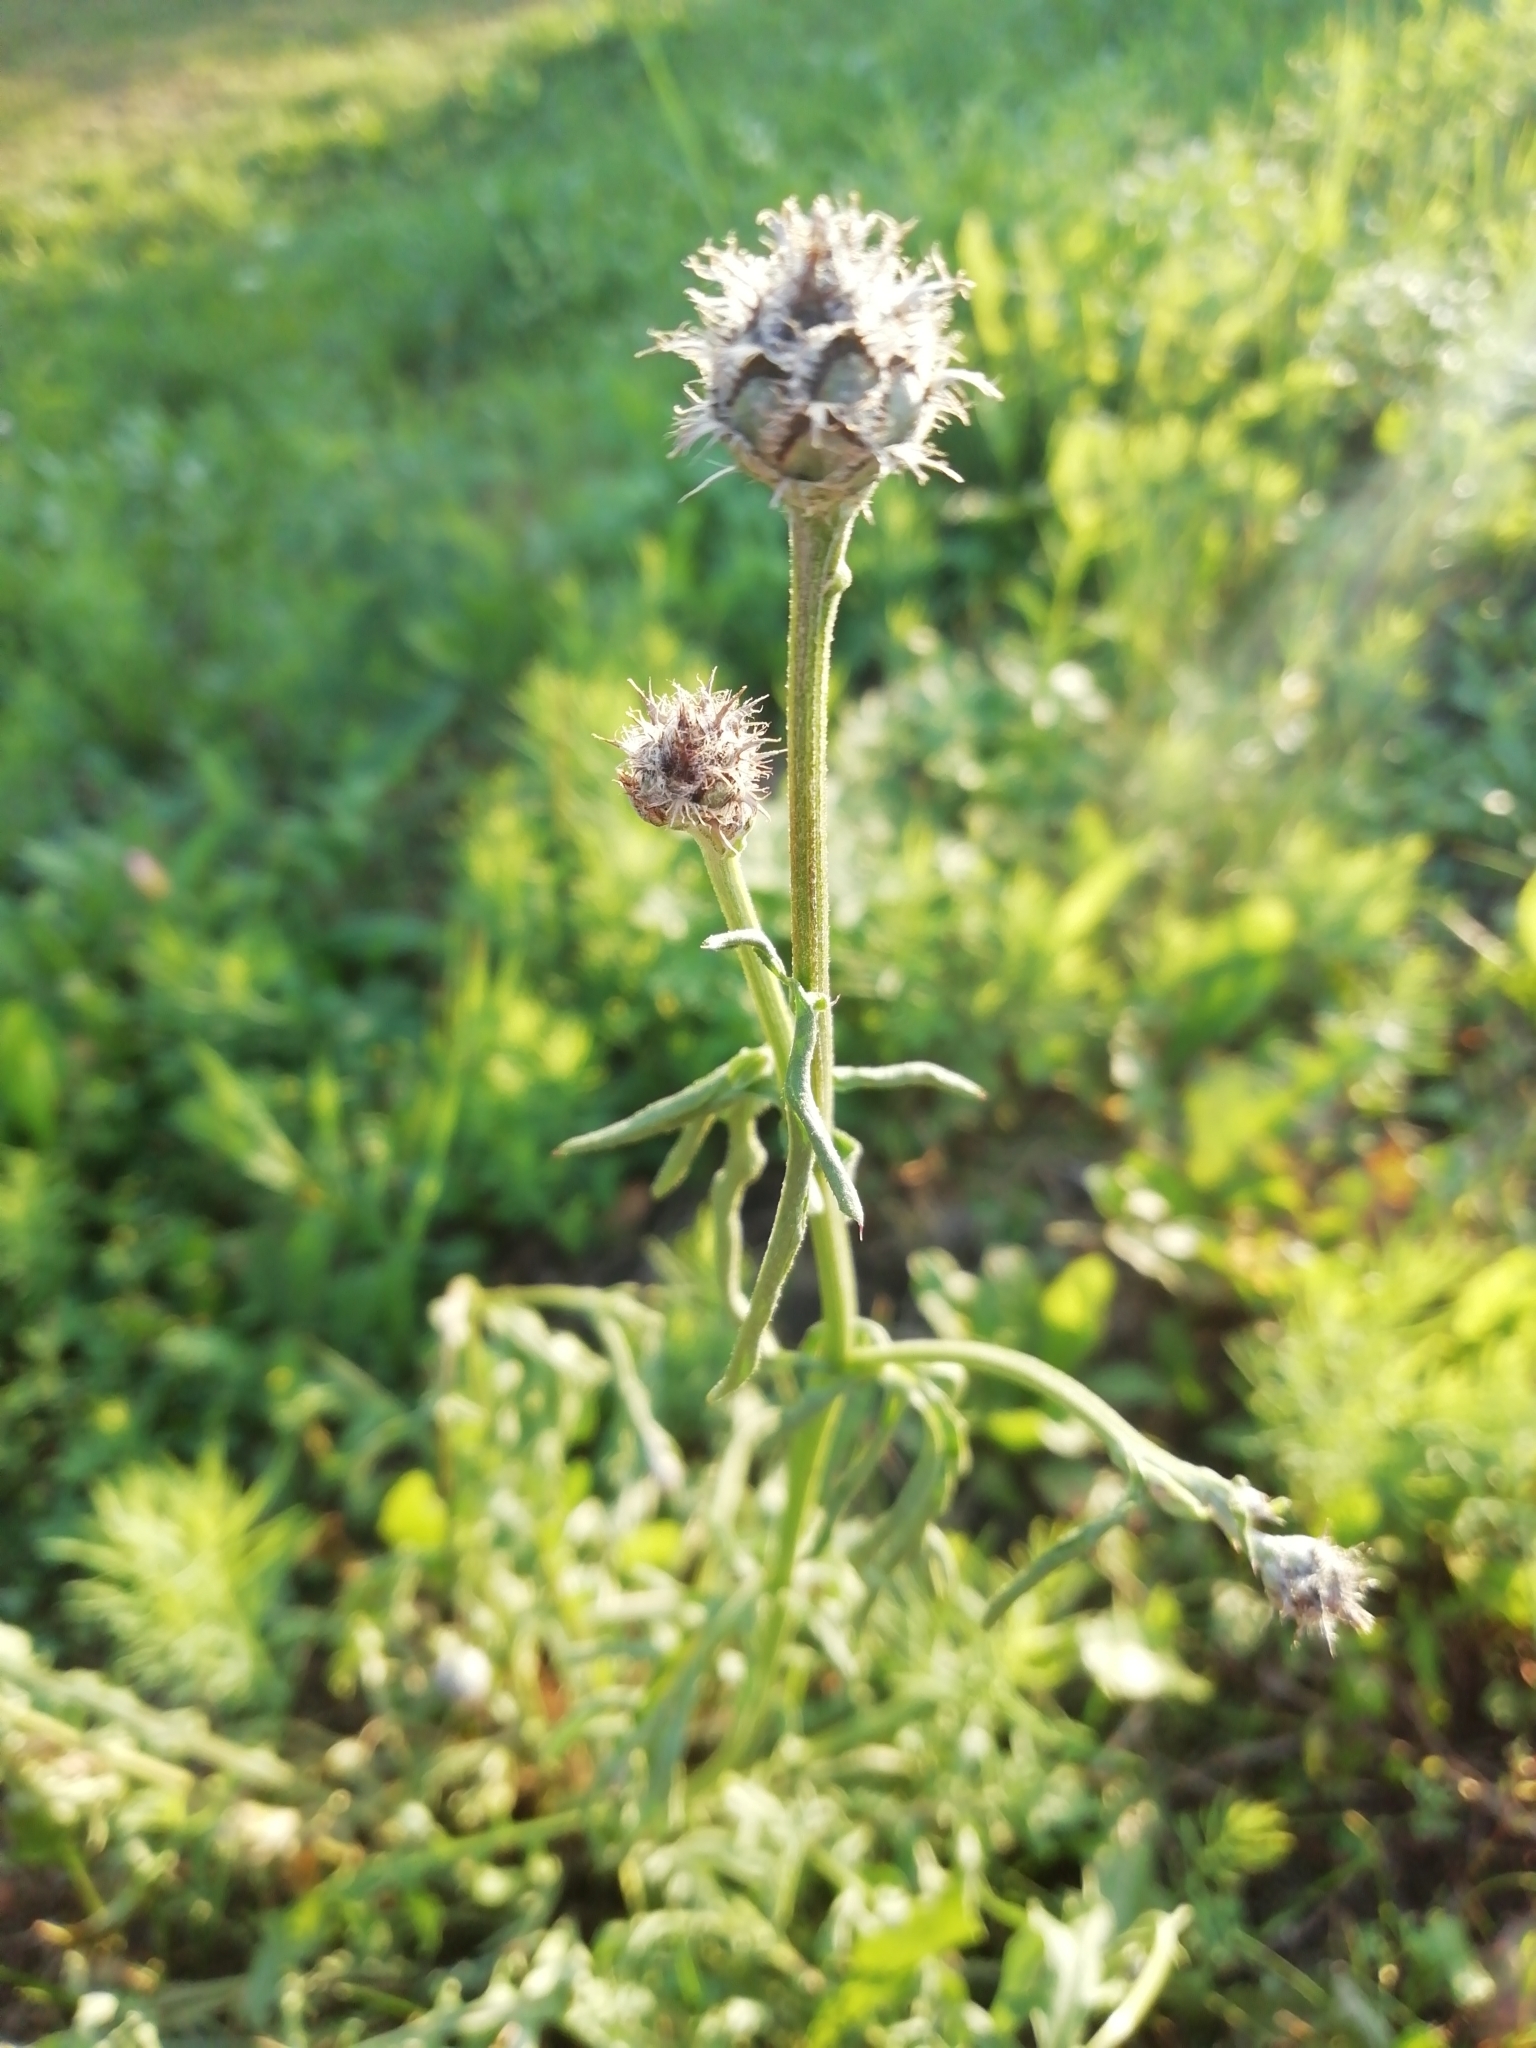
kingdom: Plantae
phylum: Tracheophyta
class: Magnoliopsida
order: Asterales
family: Asteraceae
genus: Centaurea
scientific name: Centaurea scabiosa
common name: Greater knapweed
